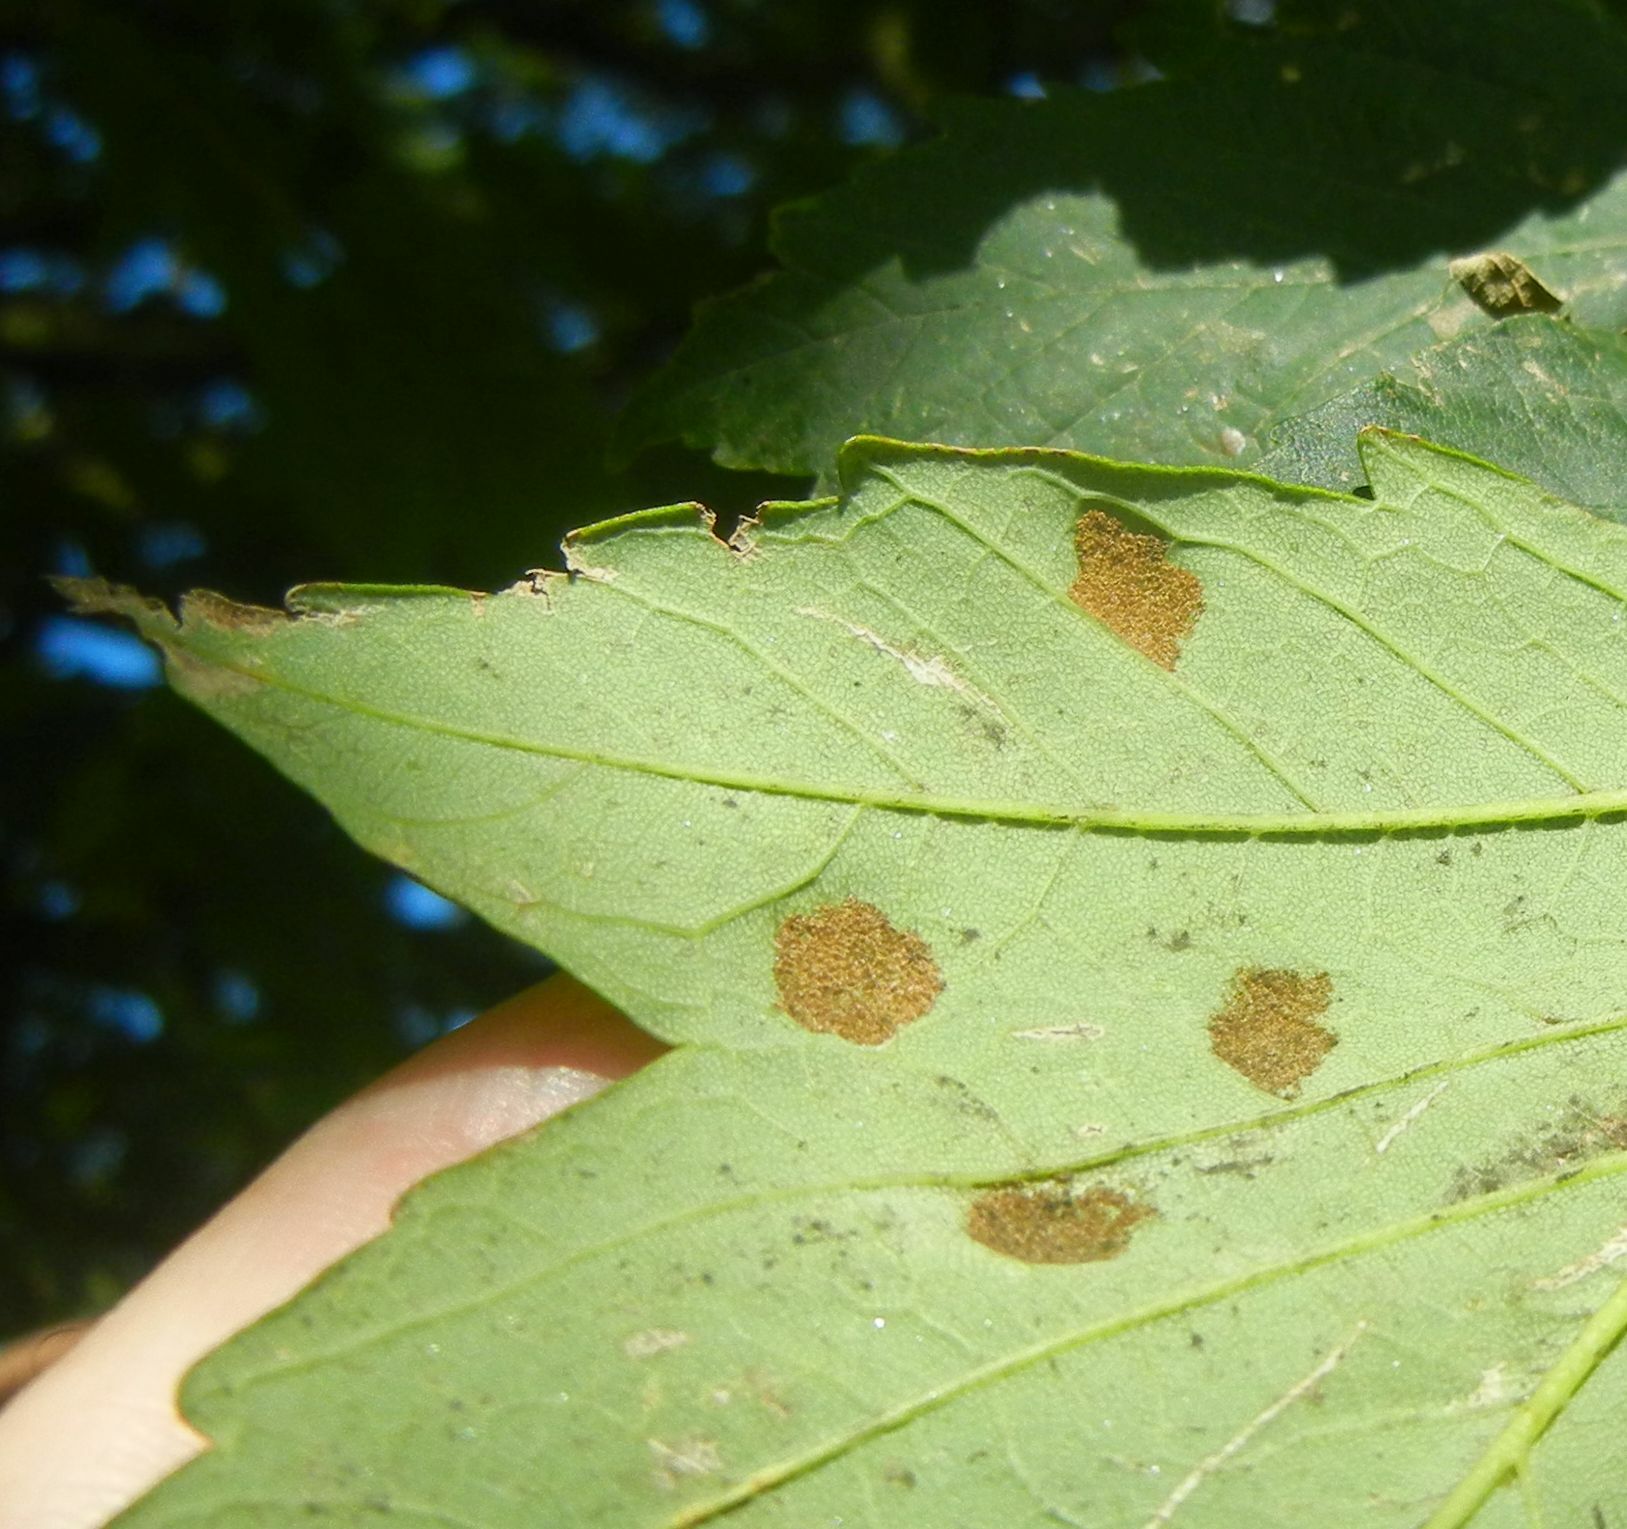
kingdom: Animalia
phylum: Arthropoda
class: Arachnida
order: Trombidiformes
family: Eriophyidae
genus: Aceria
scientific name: Aceria pseudoplatani
